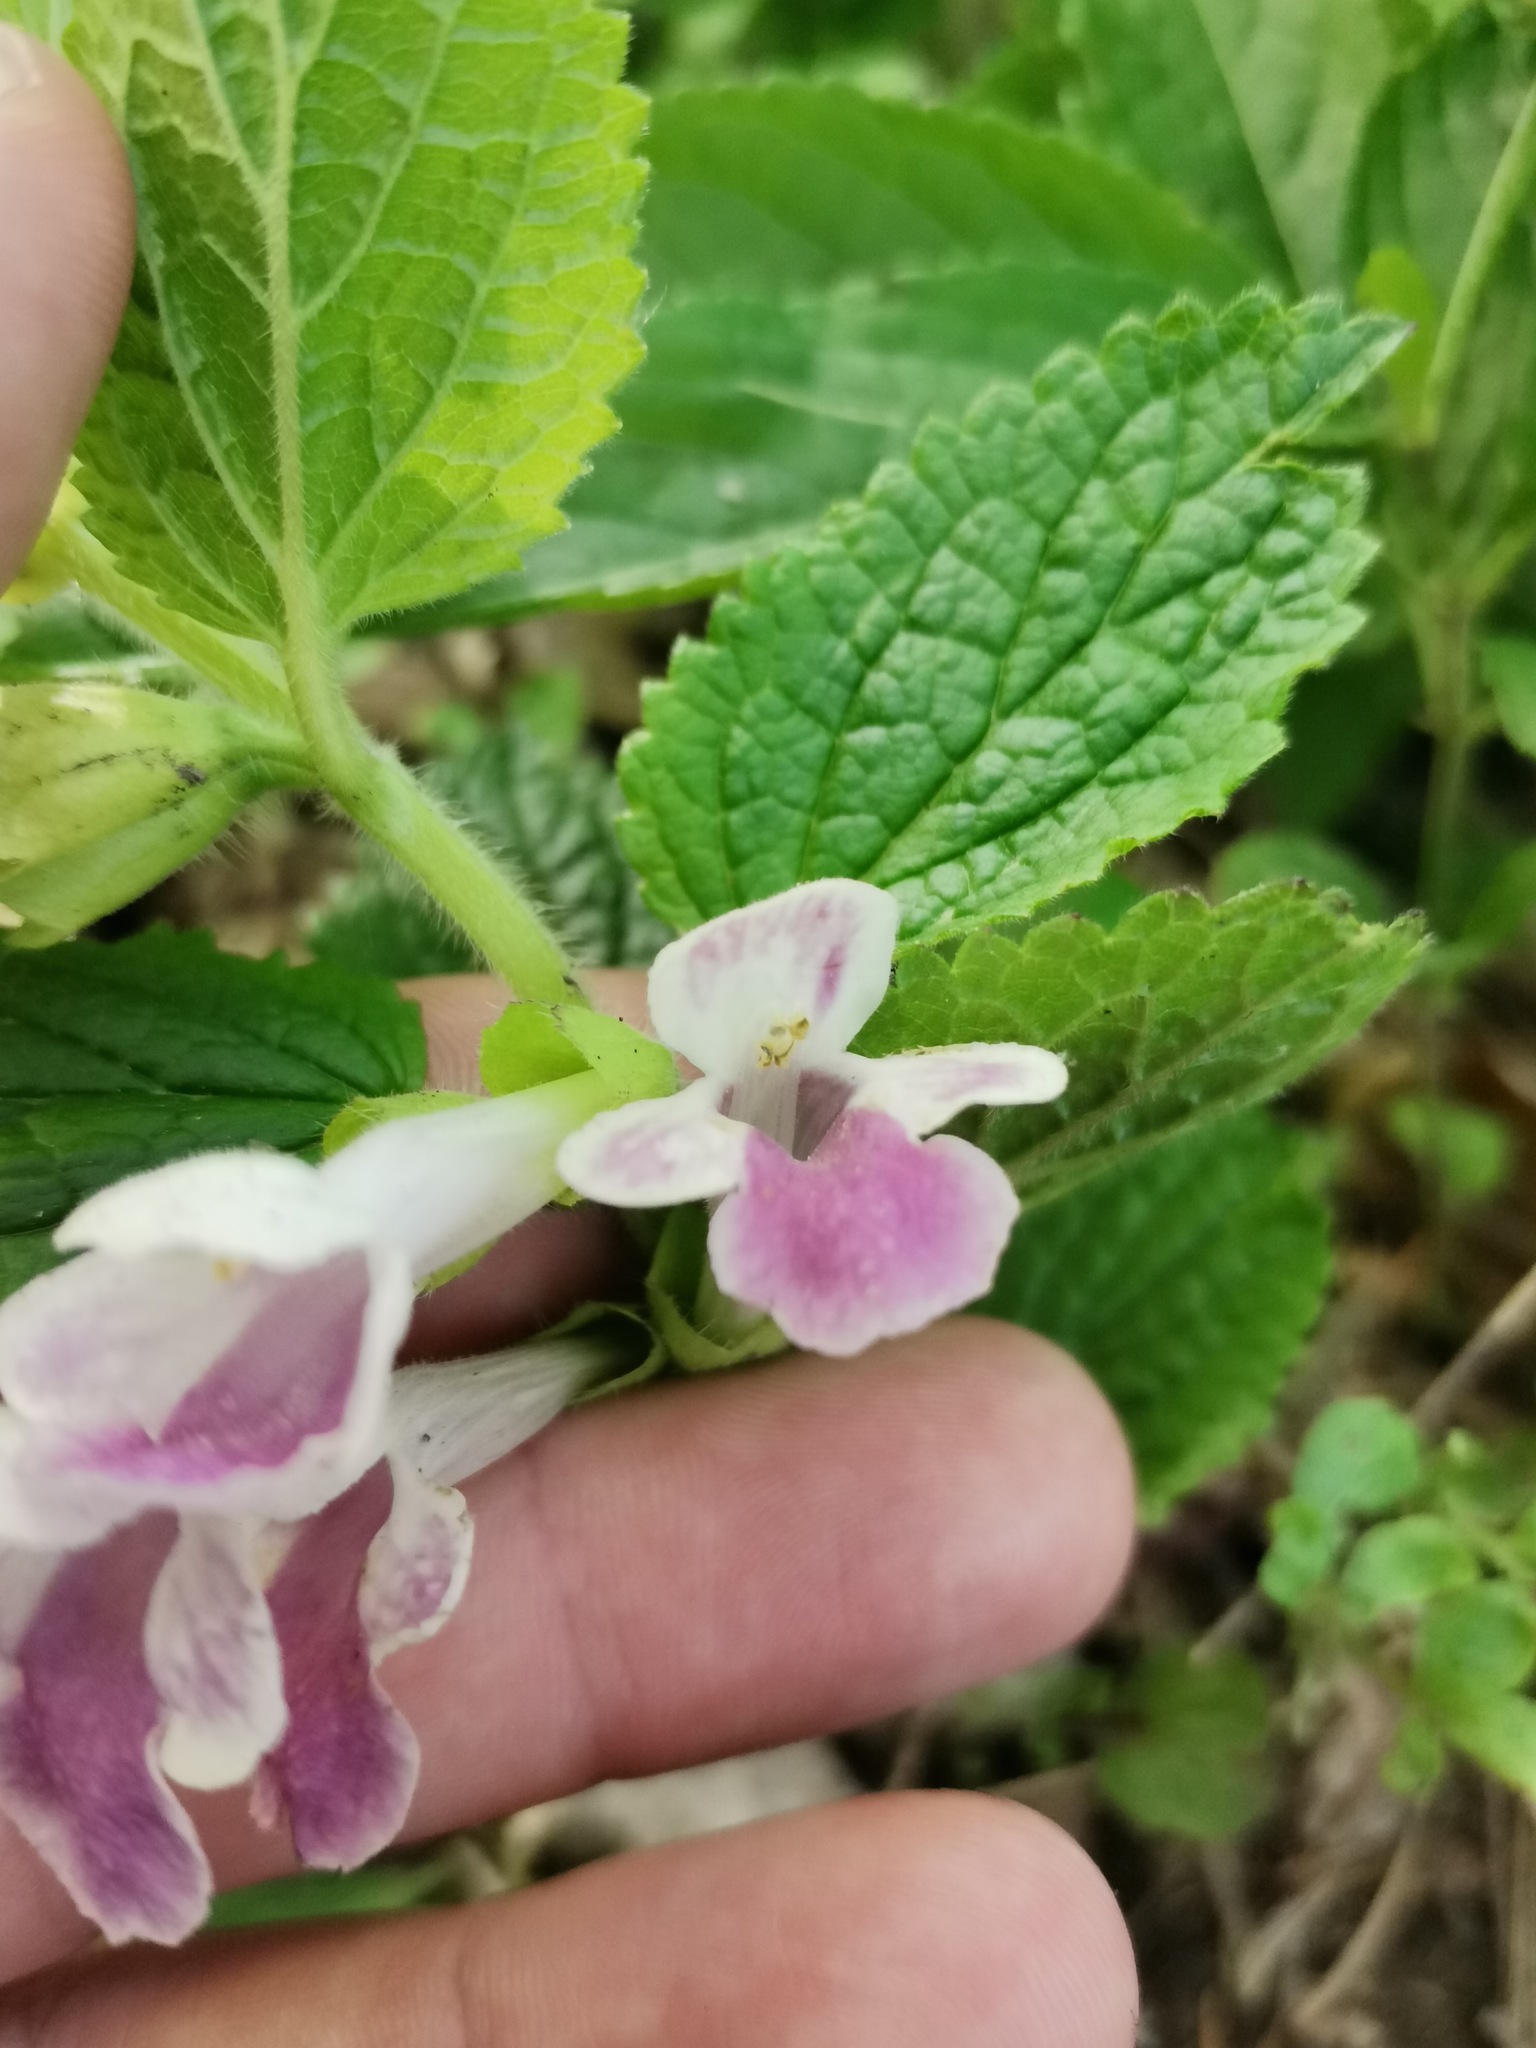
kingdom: Plantae
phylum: Tracheophyta
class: Magnoliopsida
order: Lamiales
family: Lamiaceae
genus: Melittis
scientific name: Melittis melissophyllum
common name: Bastard balm
